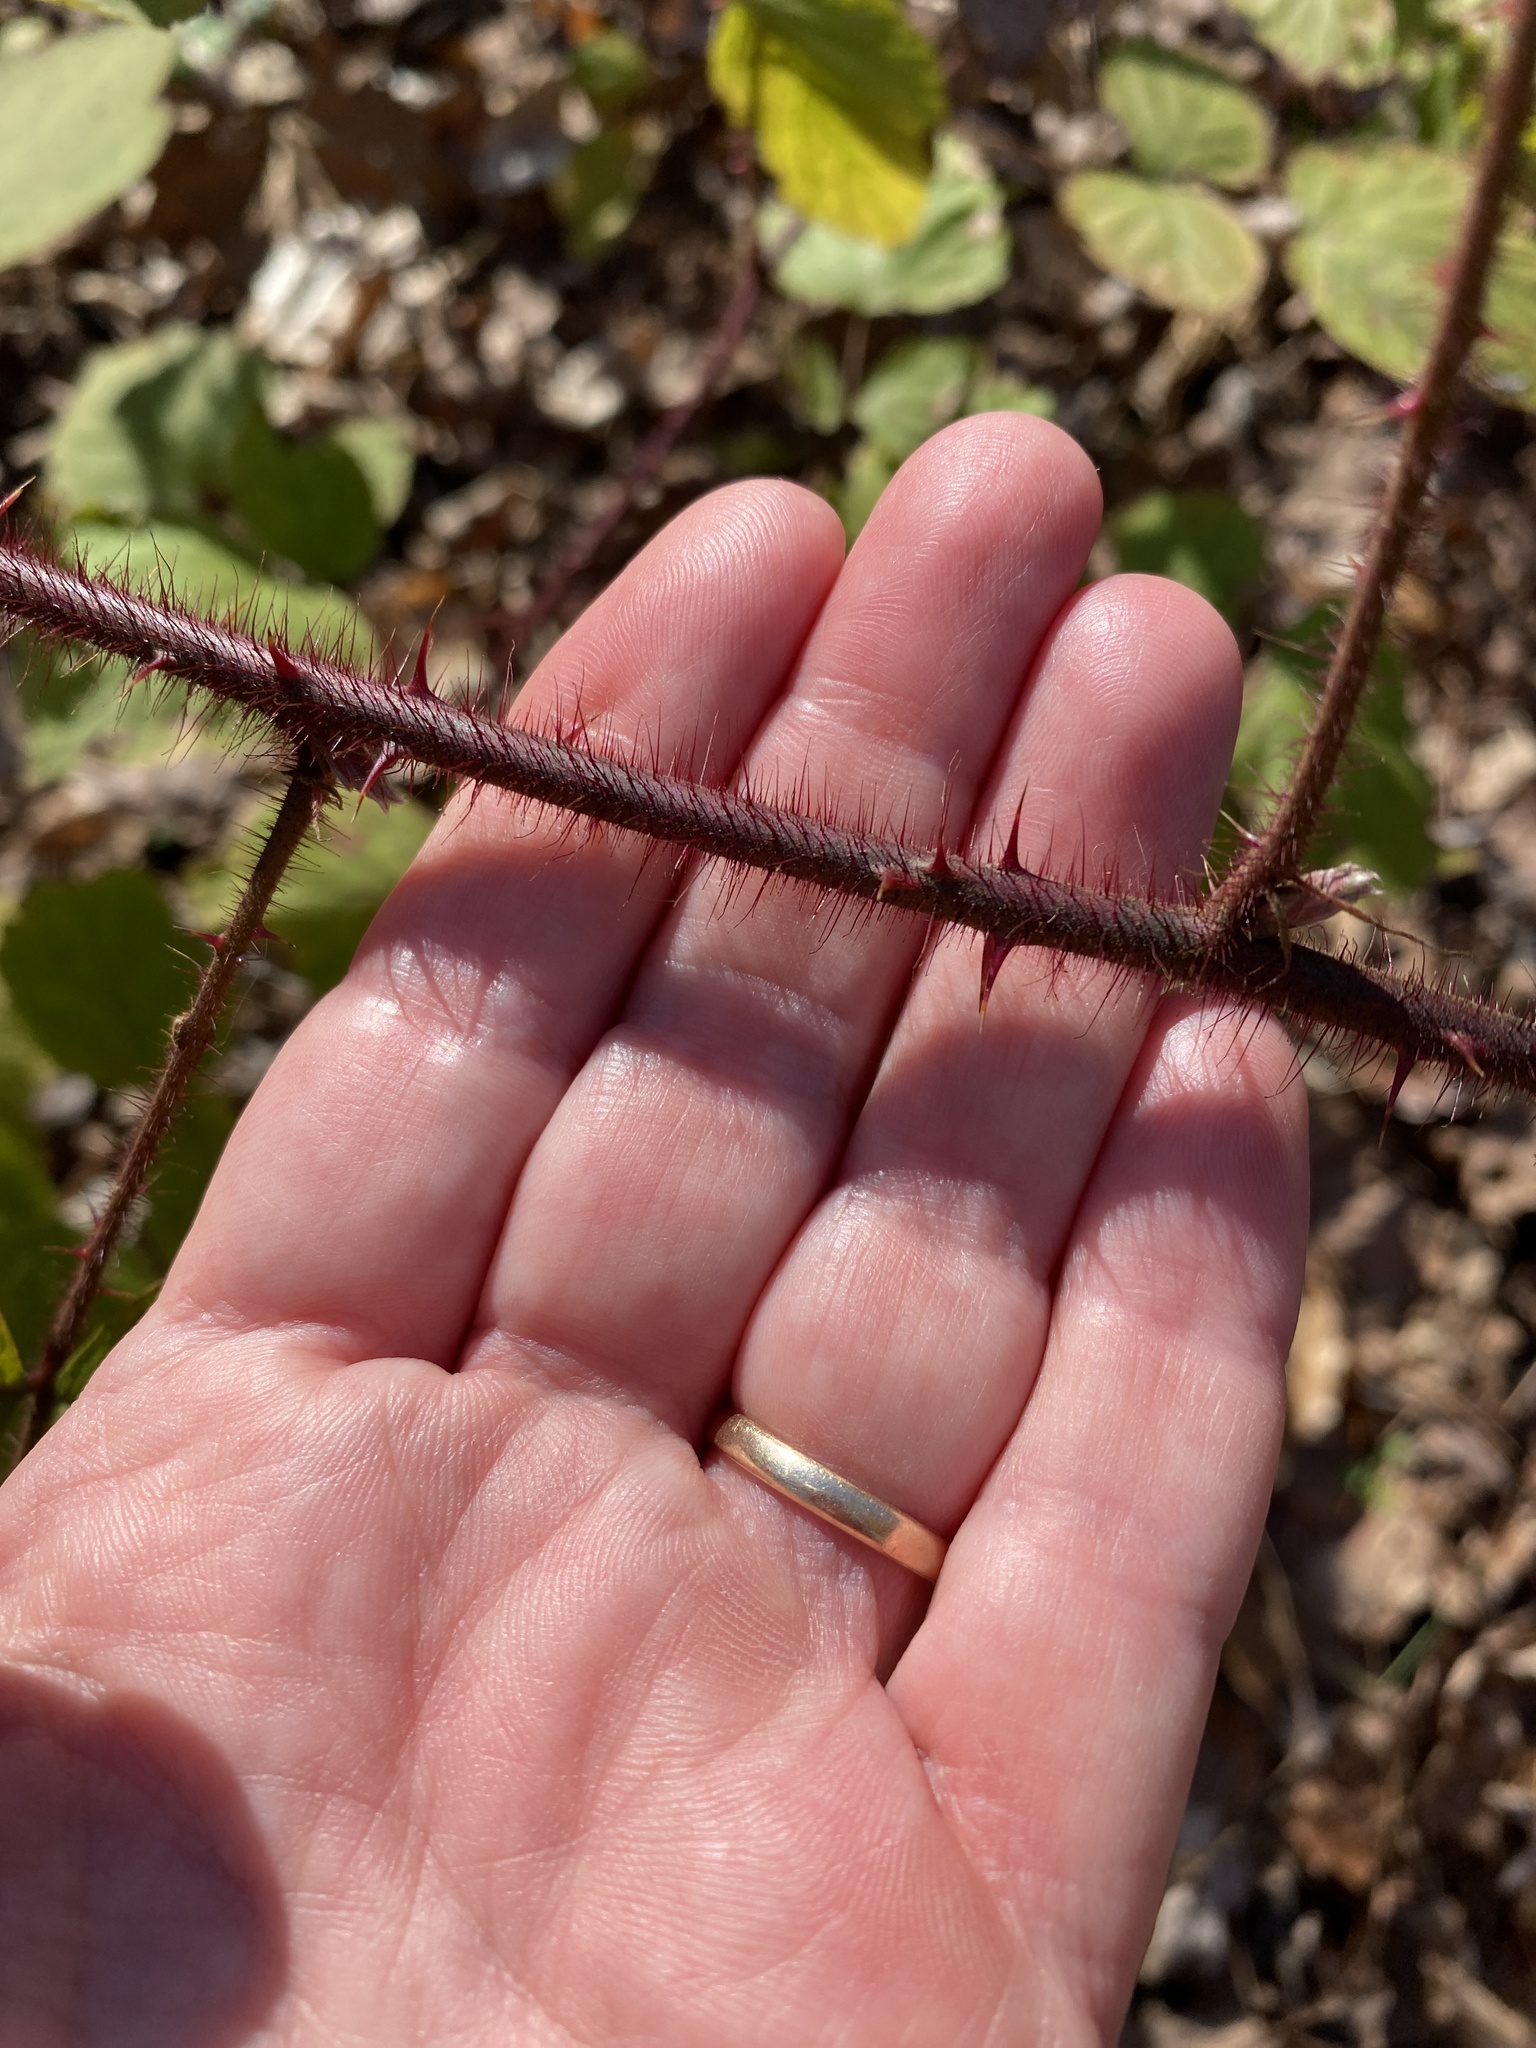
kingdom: Plantae
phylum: Tracheophyta
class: Magnoliopsida
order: Rosales
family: Rosaceae
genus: Rubus
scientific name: Rubus phoenicolasius
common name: Japanese wineberry
